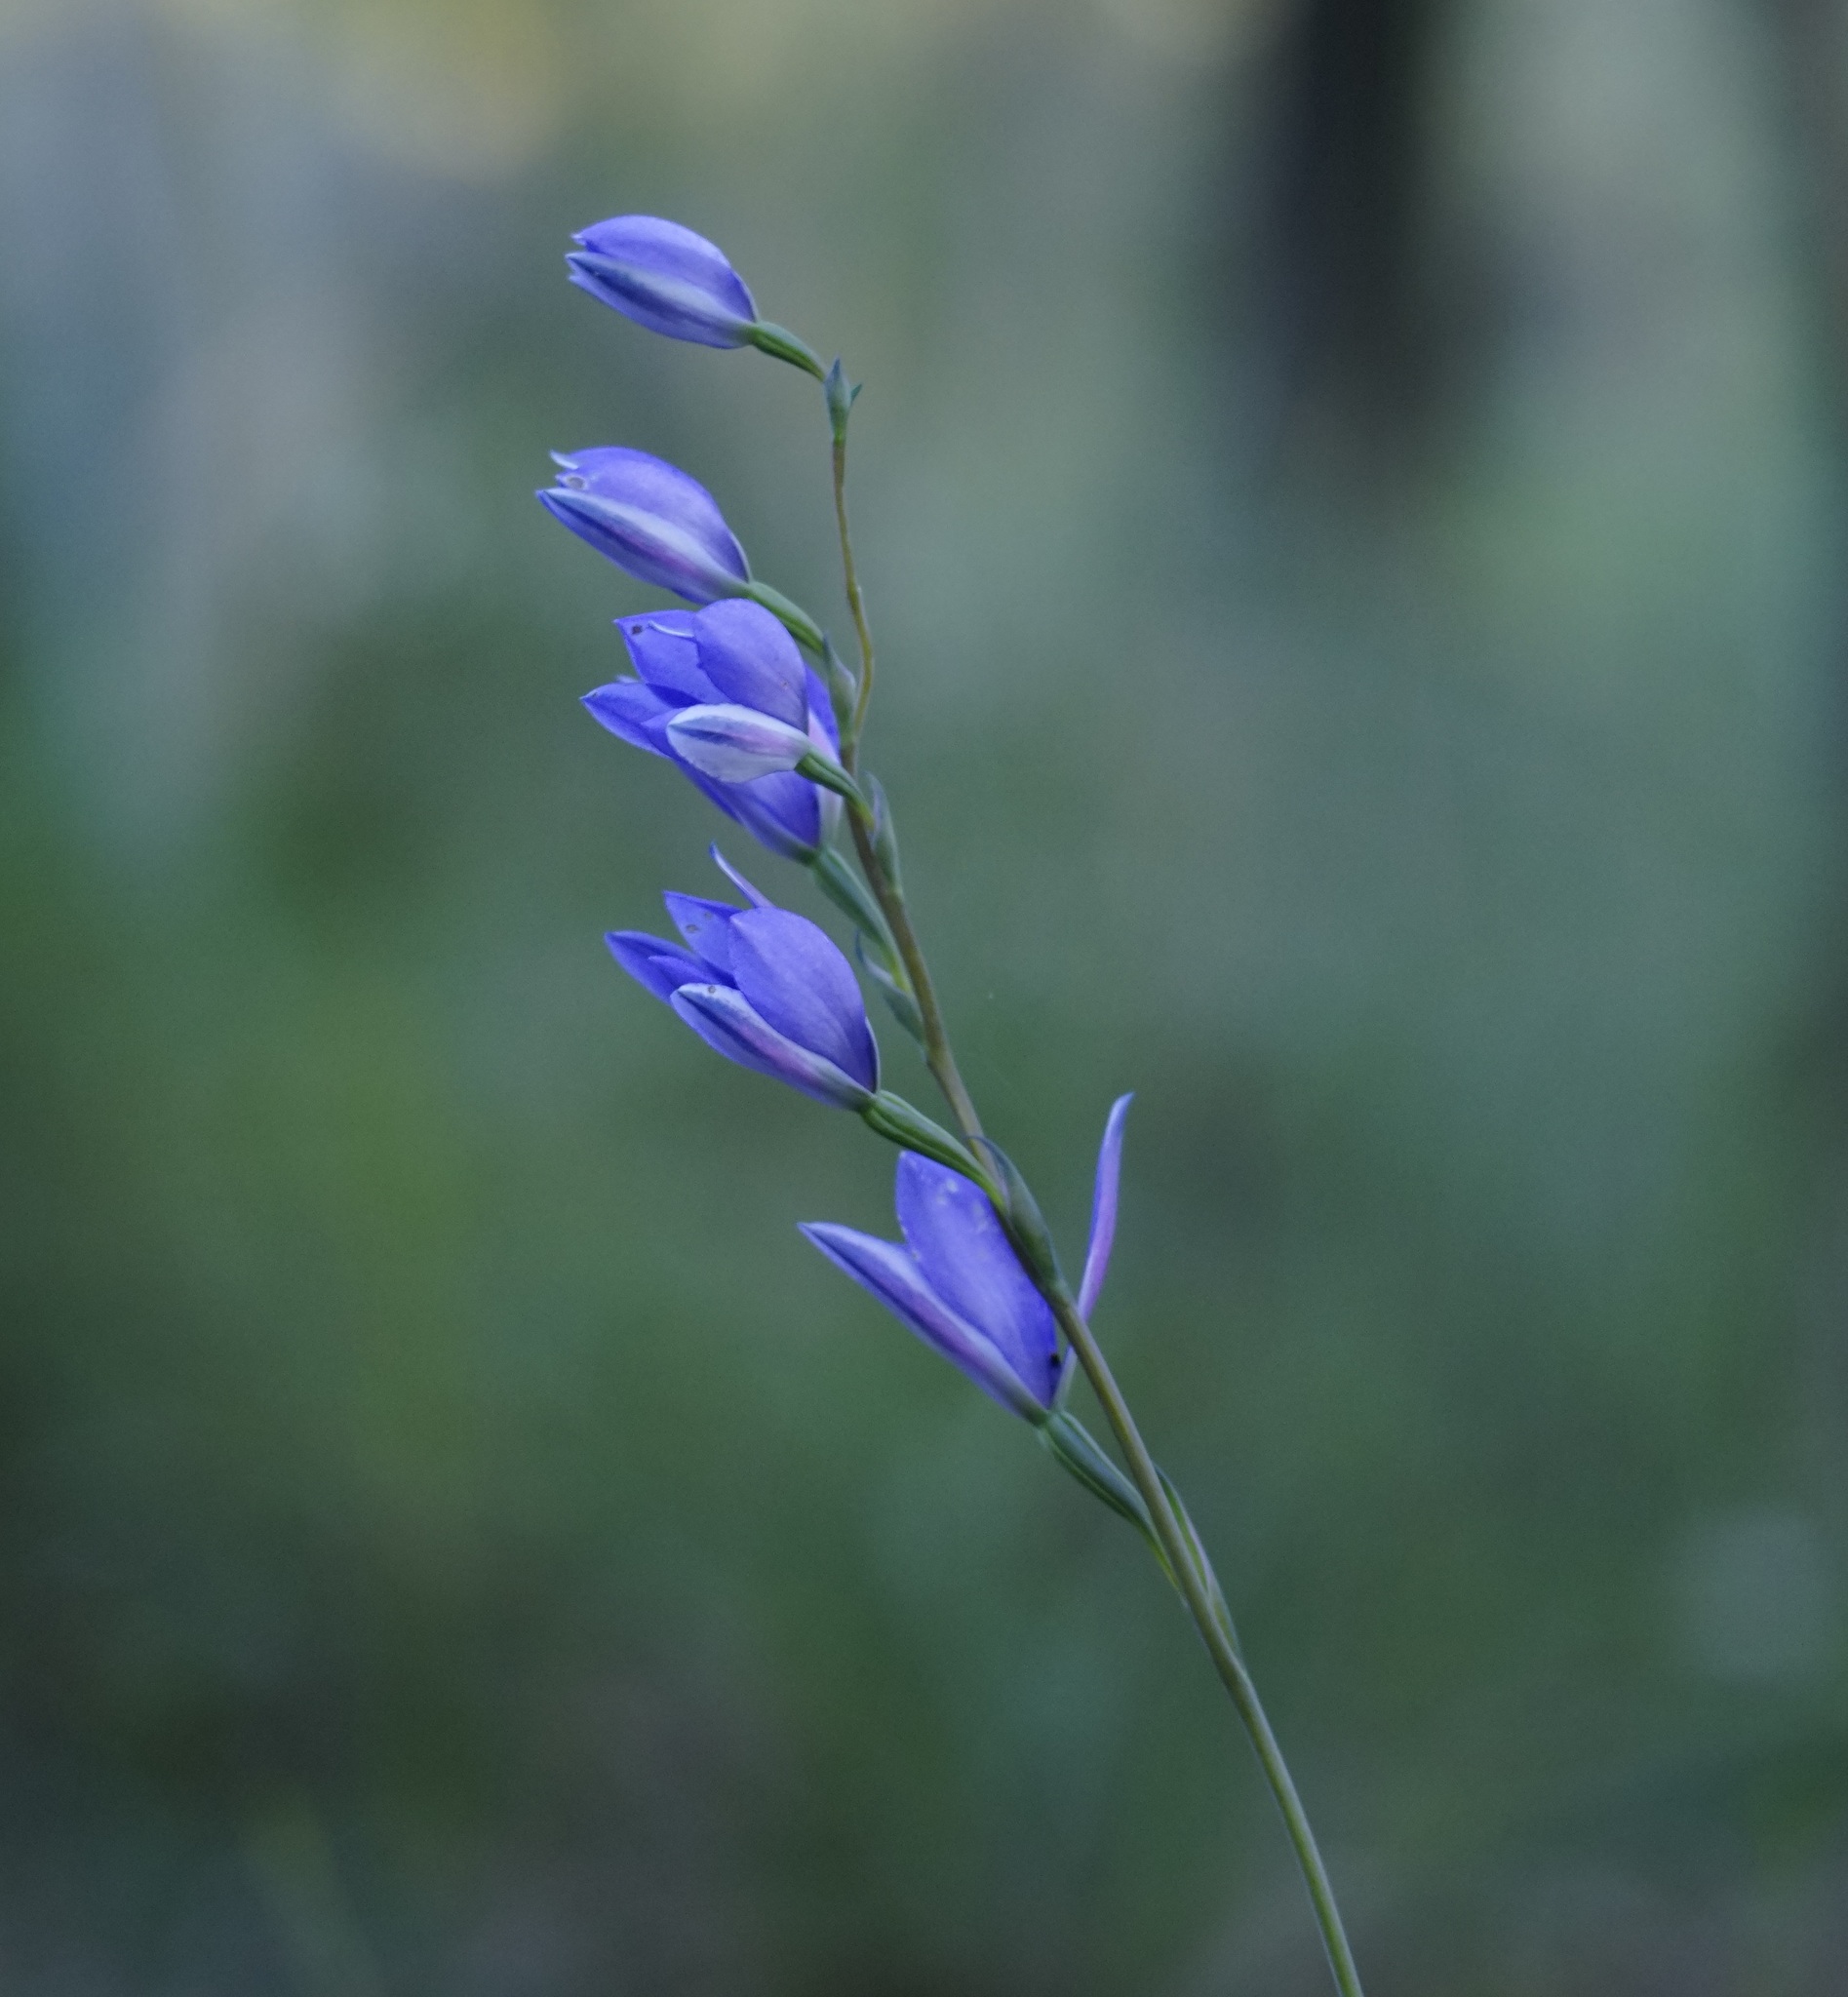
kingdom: Plantae
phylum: Tracheophyta
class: Liliopsida
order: Asparagales
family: Orchidaceae
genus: Thelymitra
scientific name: Thelymitra ixioides
